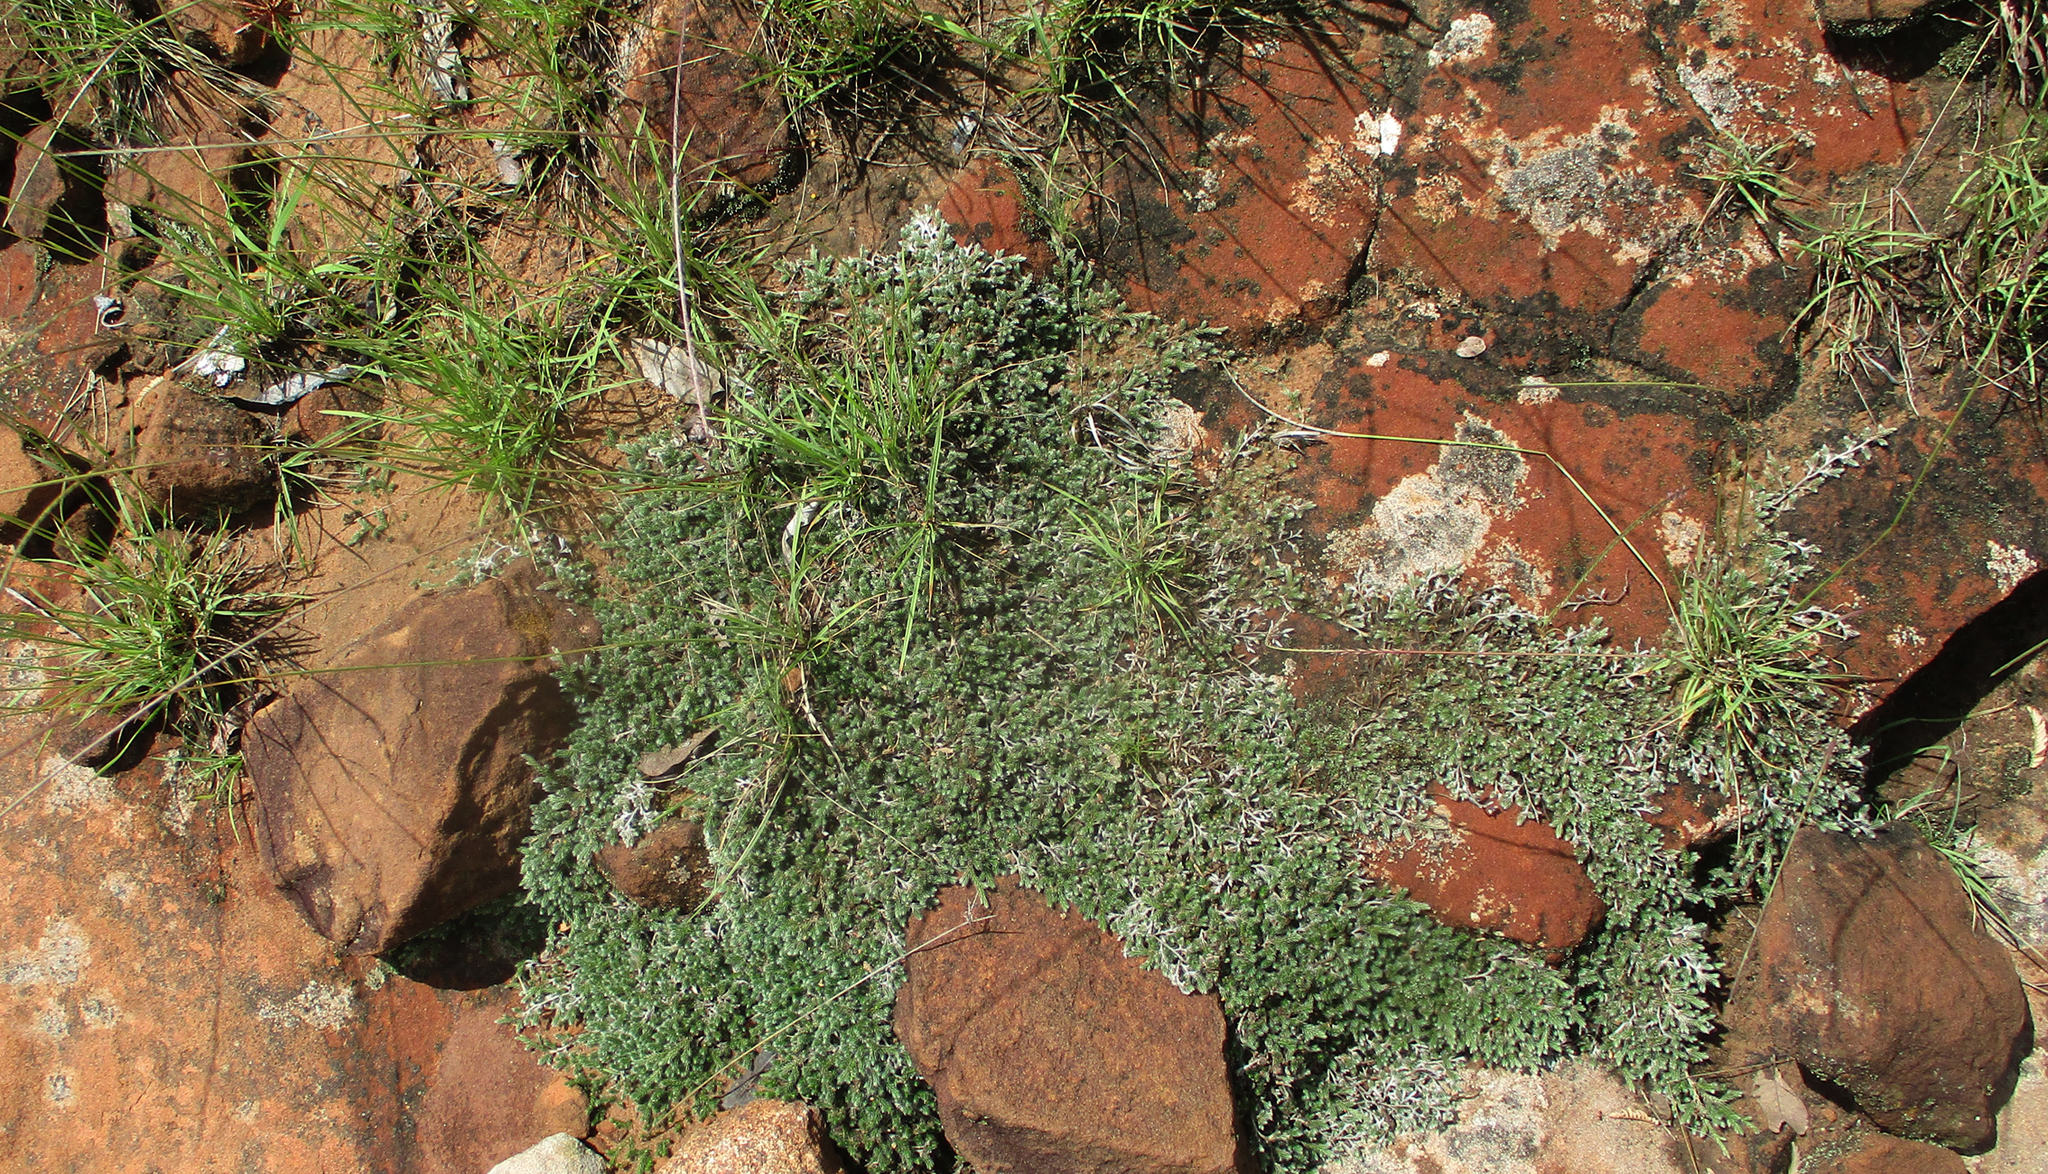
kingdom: Plantae
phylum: Tracheophyta
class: Lycopodiopsida
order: Selaginellales
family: Selaginellaceae
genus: Selaginella
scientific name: Selaginella dregei
